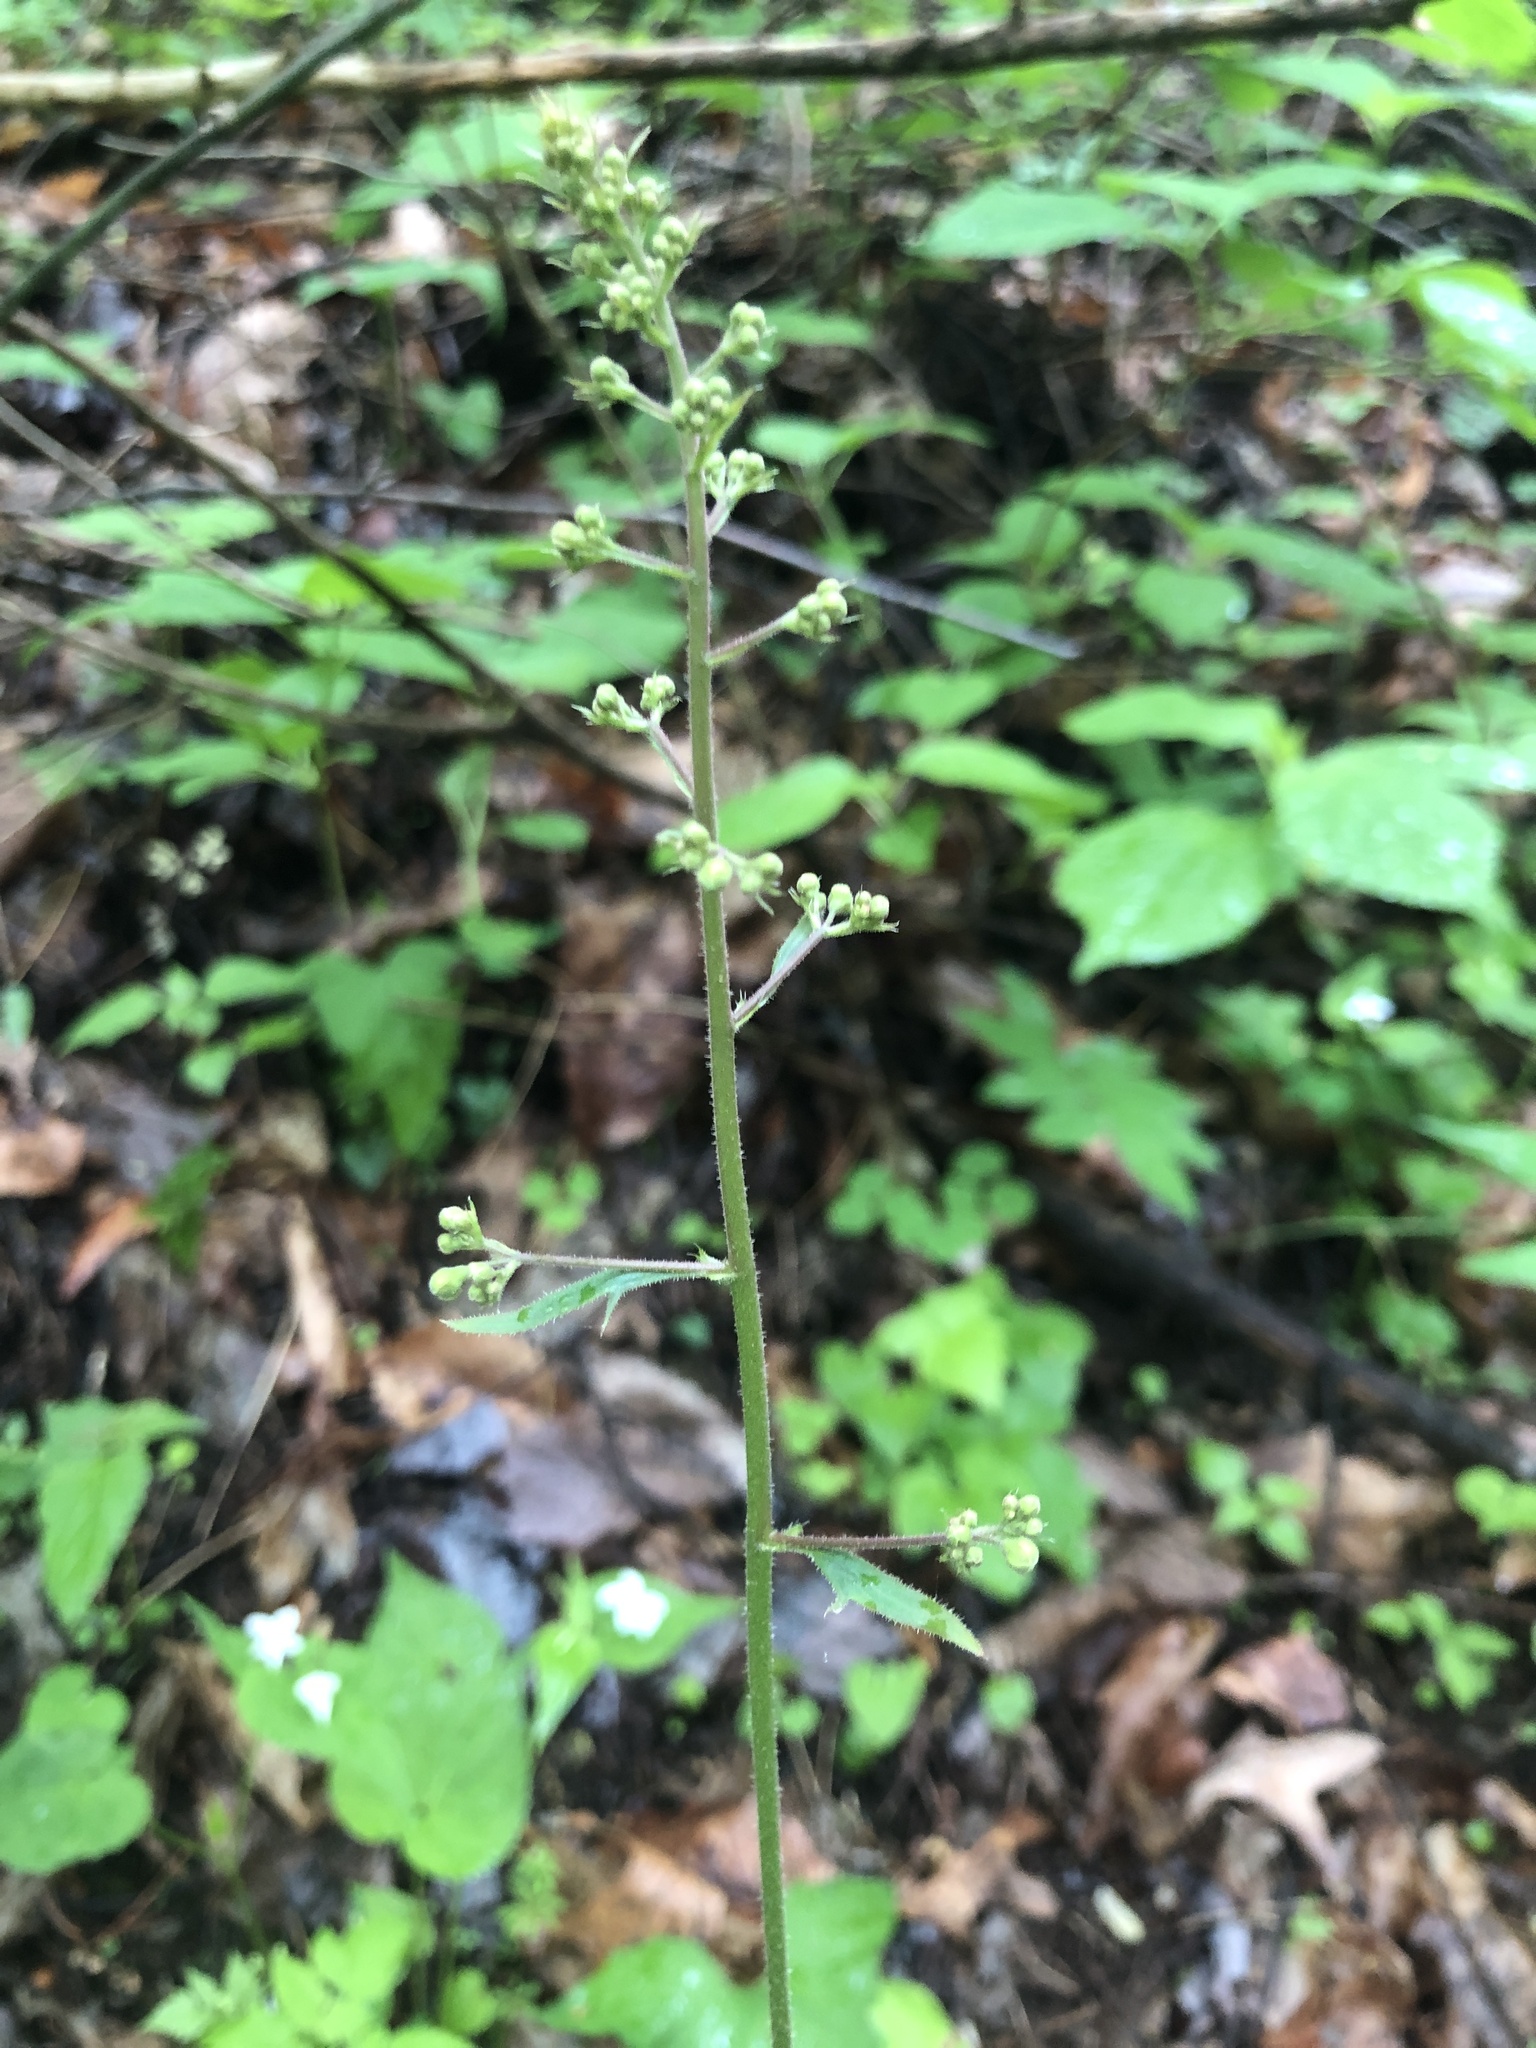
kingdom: Plantae
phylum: Tracheophyta
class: Magnoliopsida
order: Saxifragales
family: Saxifragaceae
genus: Heuchera
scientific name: Heuchera americana
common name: Alumroot
